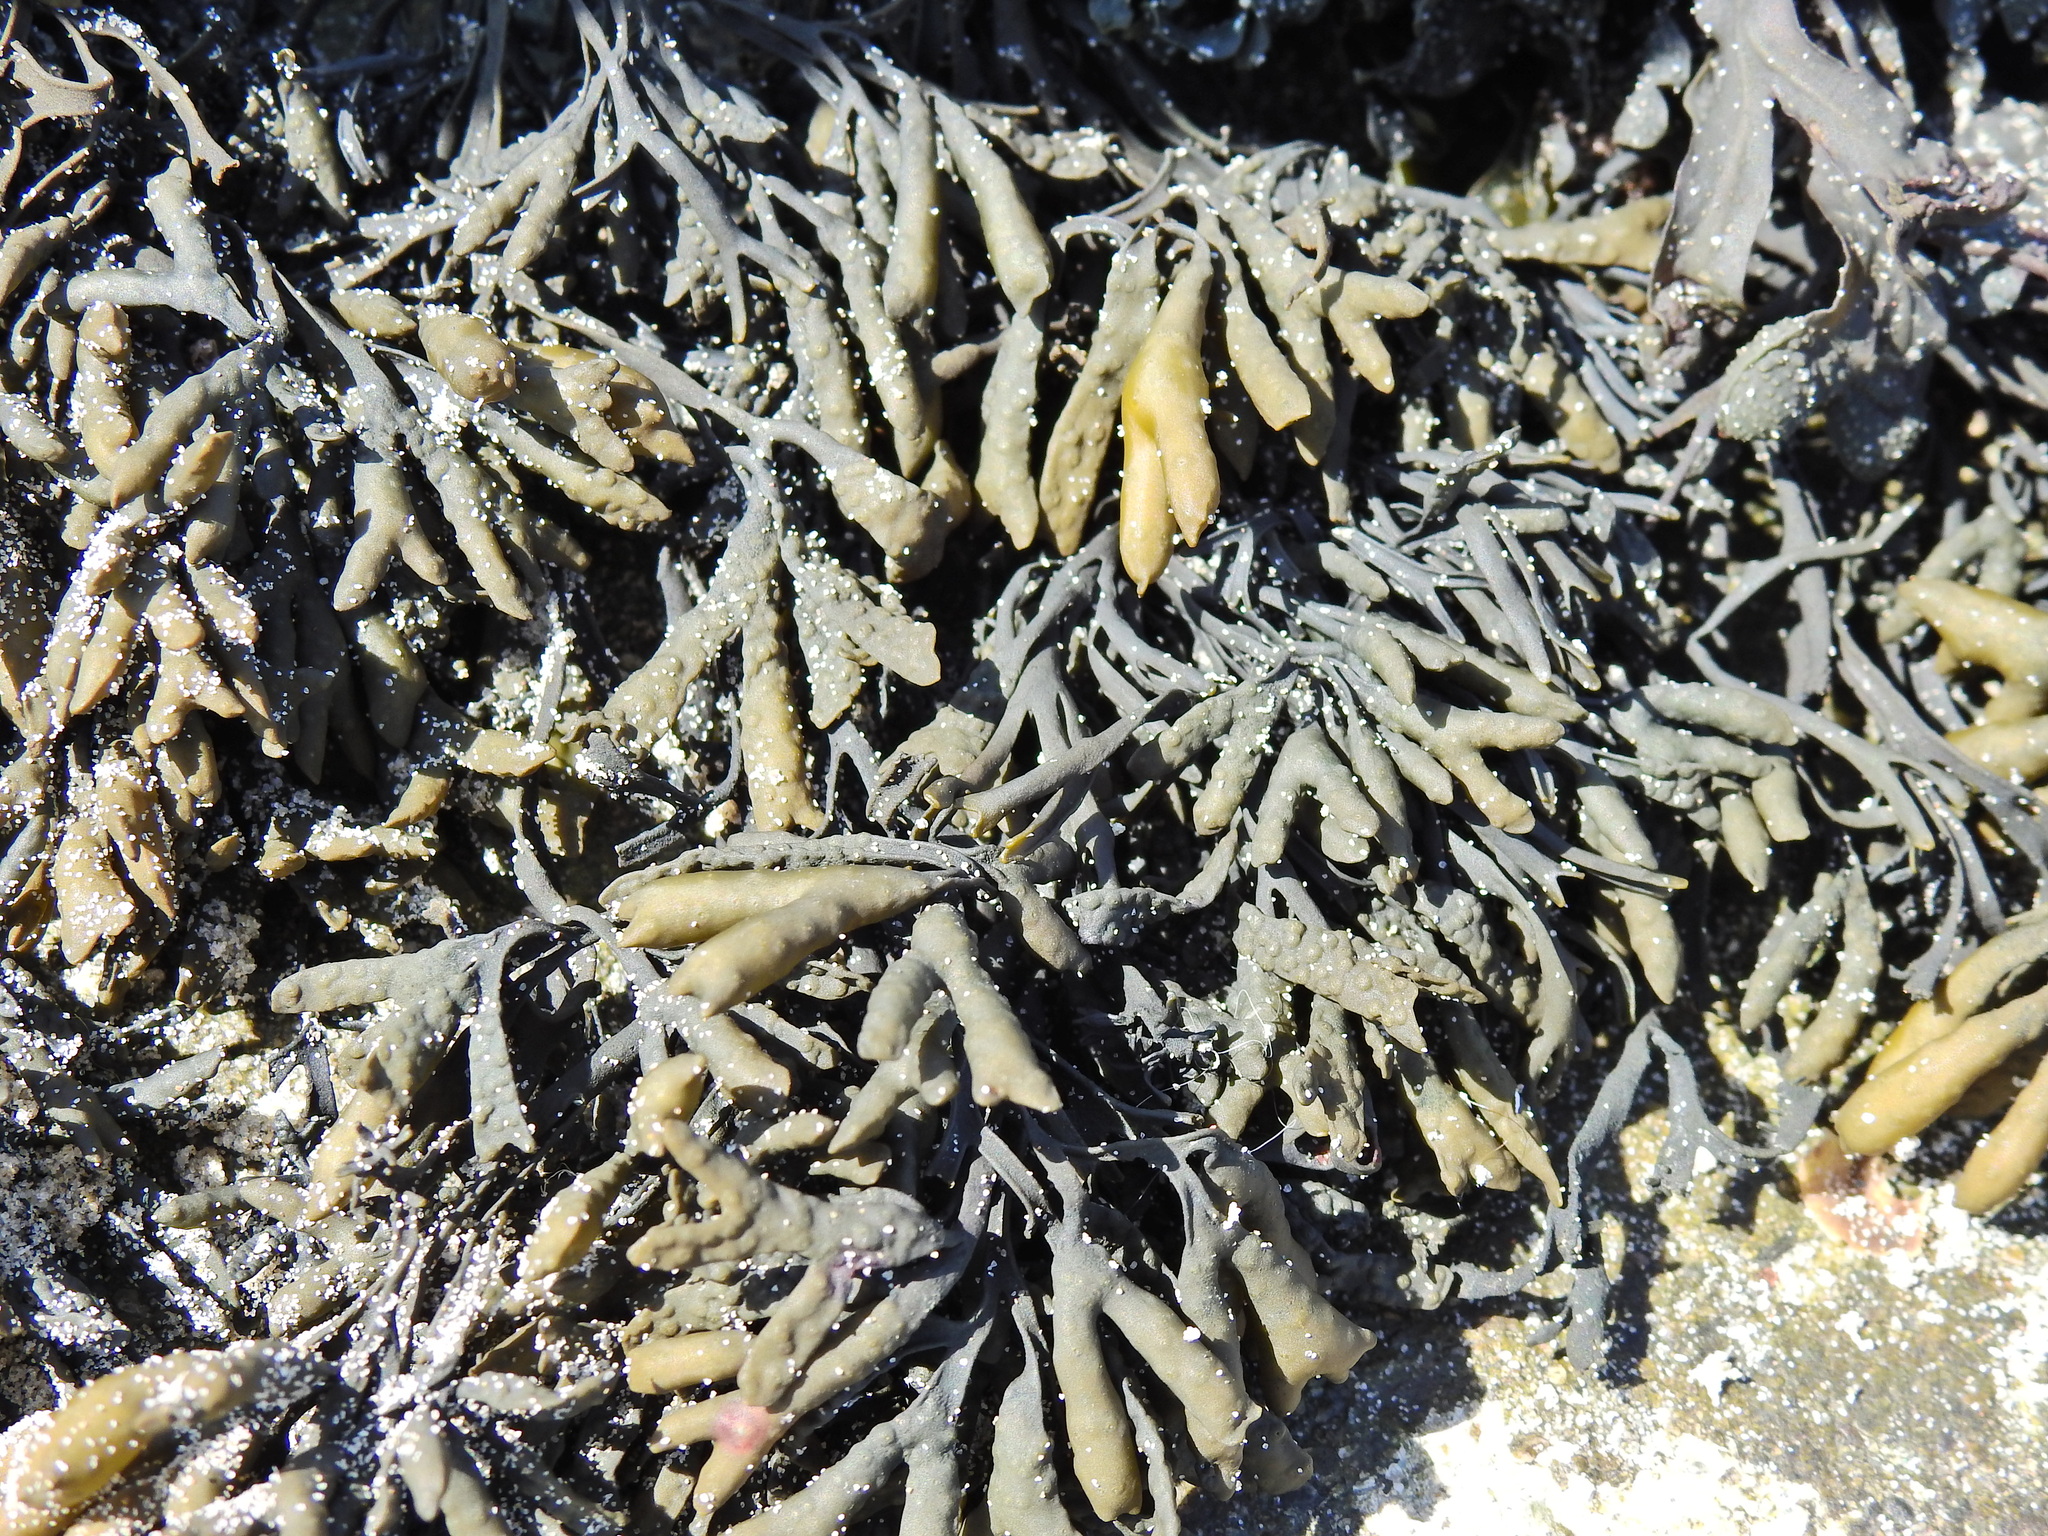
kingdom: Chromista
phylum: Ochrophyta
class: Phaeophyceae
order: Fucales
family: Fucaceae
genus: Pelvetia
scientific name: Pelvetia canaliculata
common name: Channelled wrack
